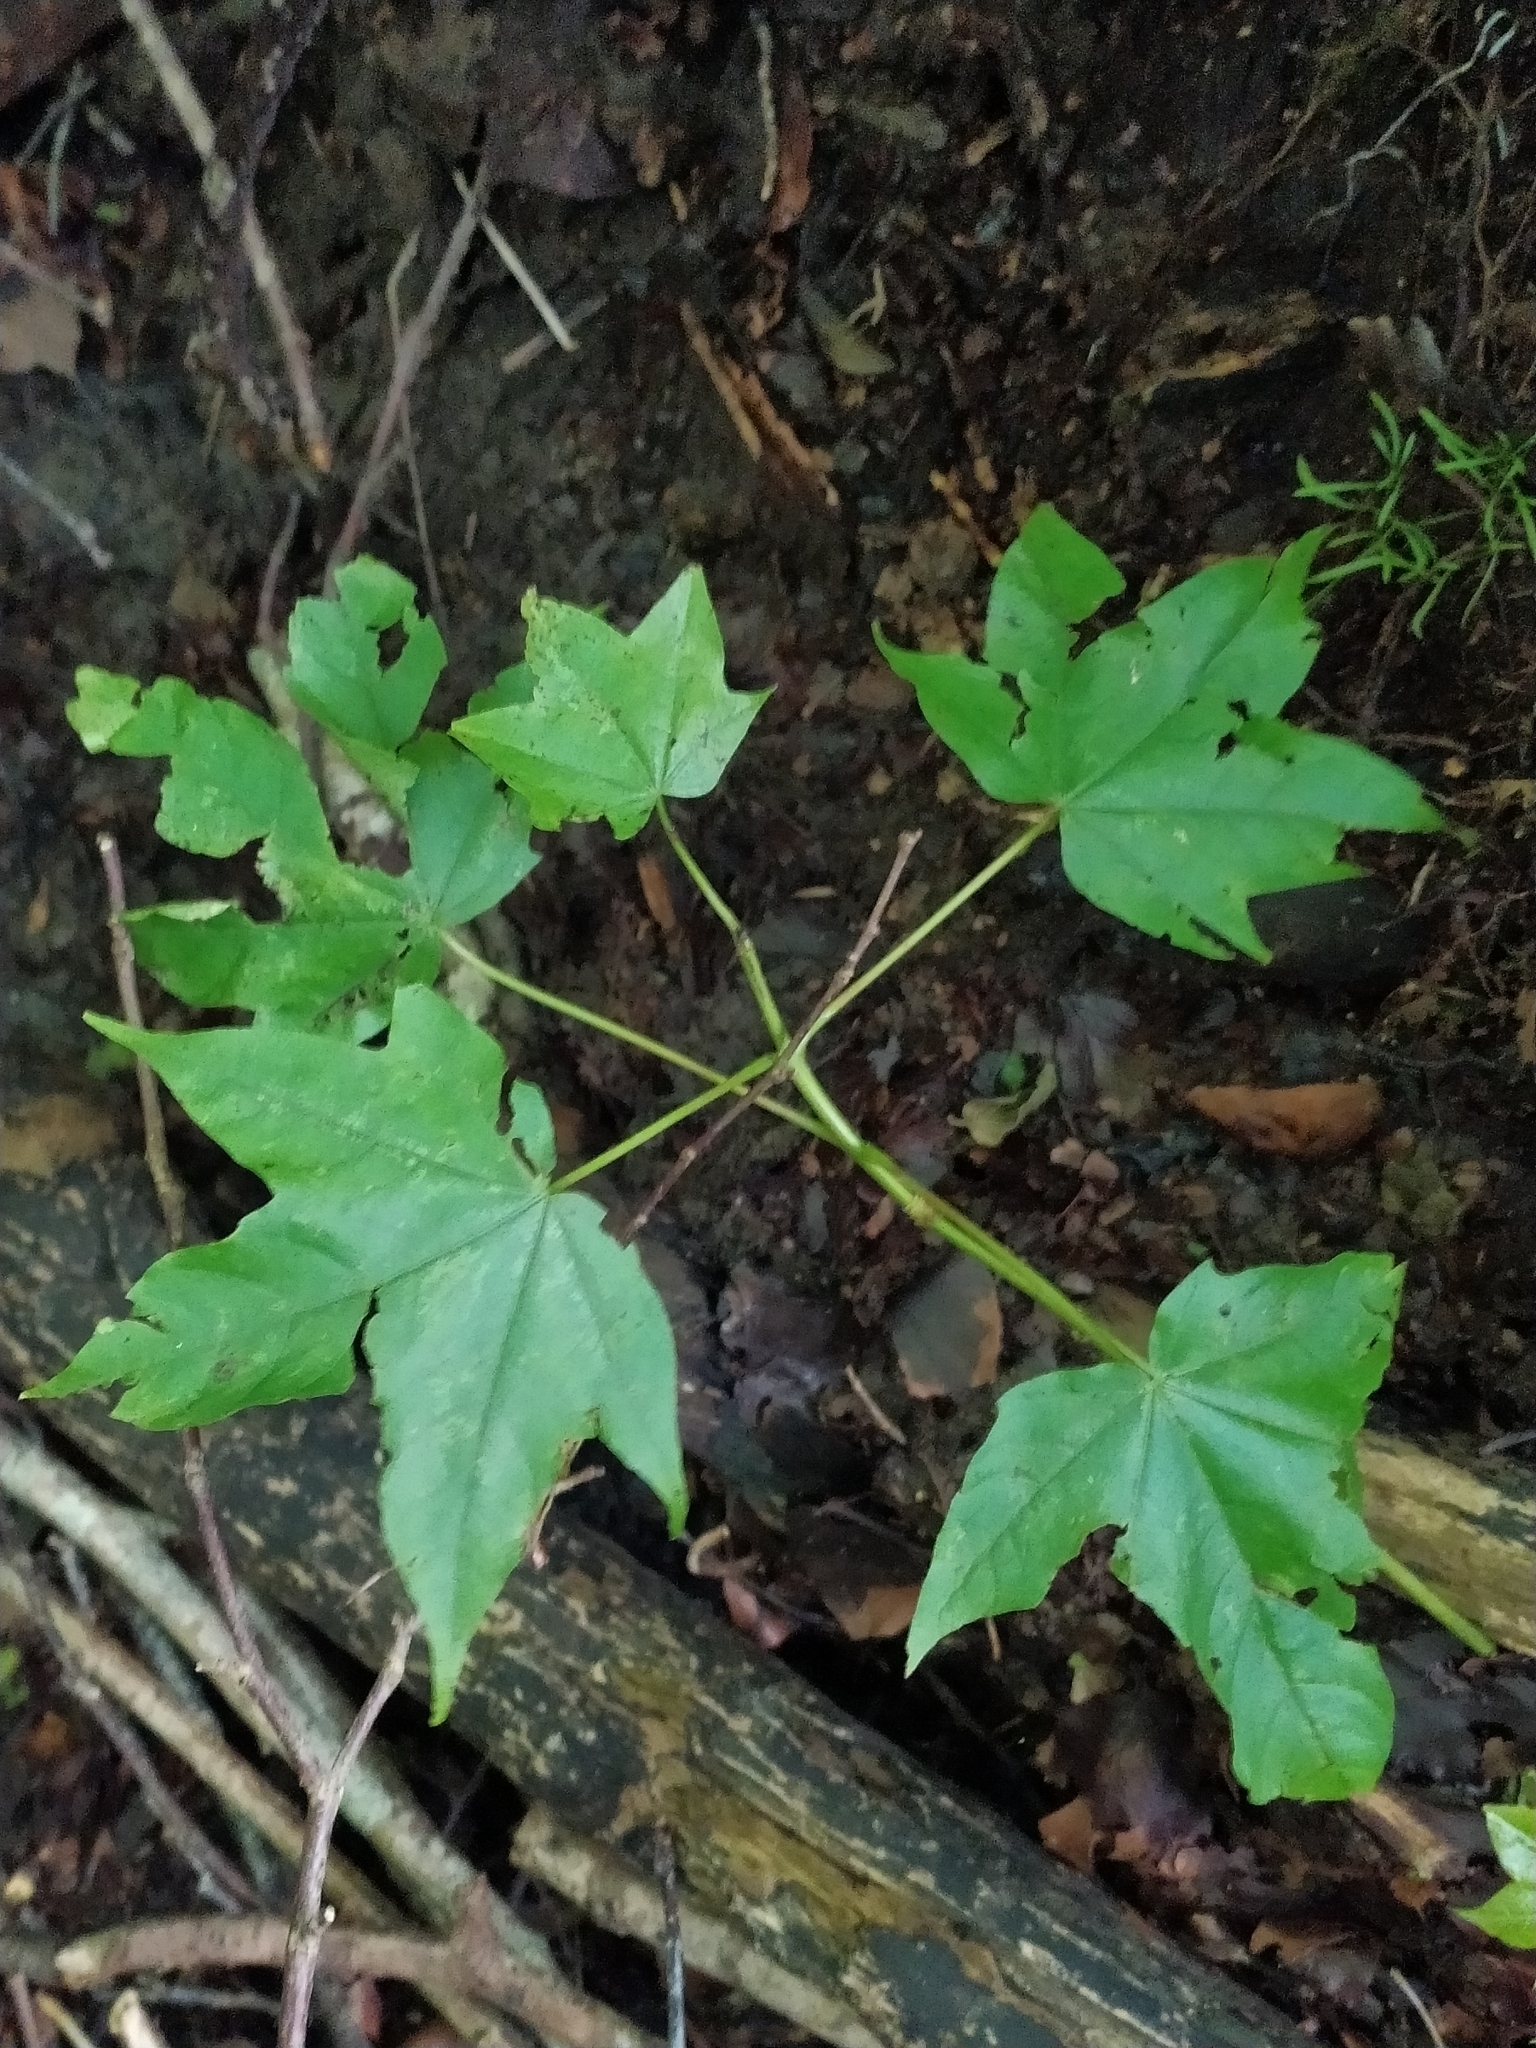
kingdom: Plantae
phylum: Tracheophyta
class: Magnoliopsida
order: Sapindales
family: Sapindaceae
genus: Acer
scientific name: Acer lobelii
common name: Lobel's maple
